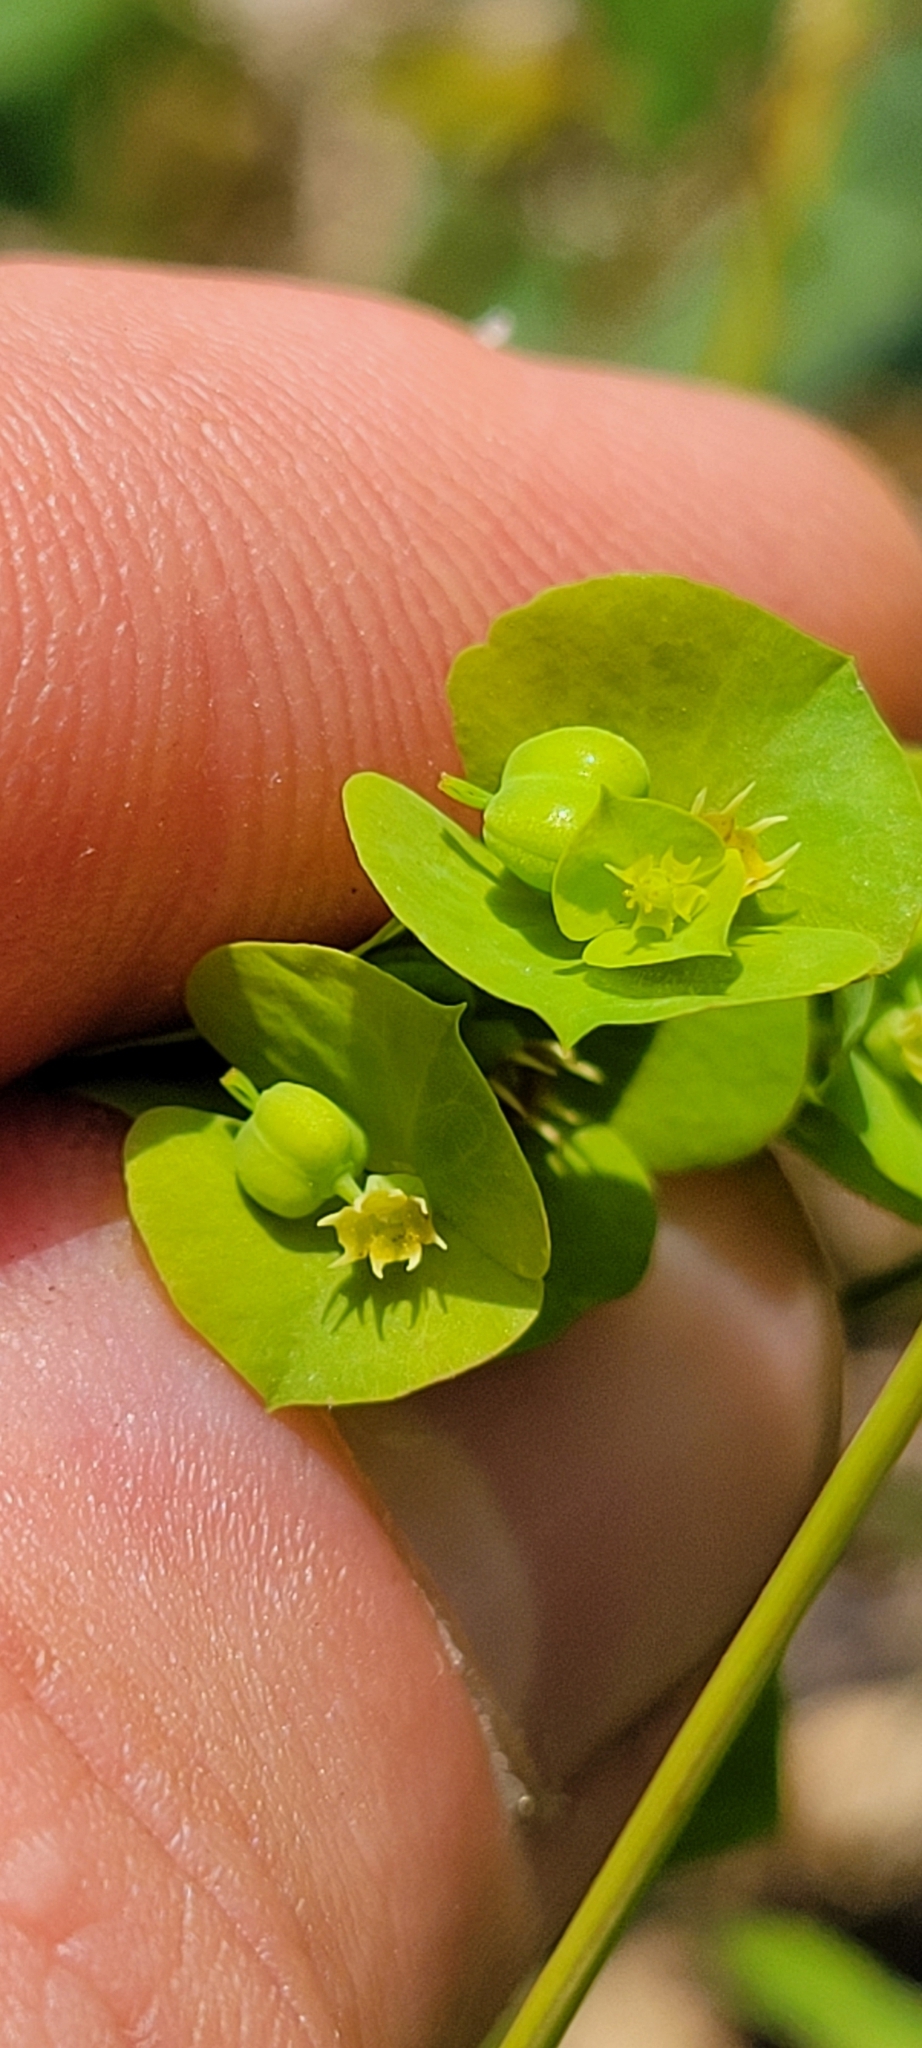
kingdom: Plantae
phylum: Tracheophyta
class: Magnoliopsida
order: Malpighiales
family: Euphorbiaceae
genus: Euphorbia
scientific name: Euphorbia commutata
